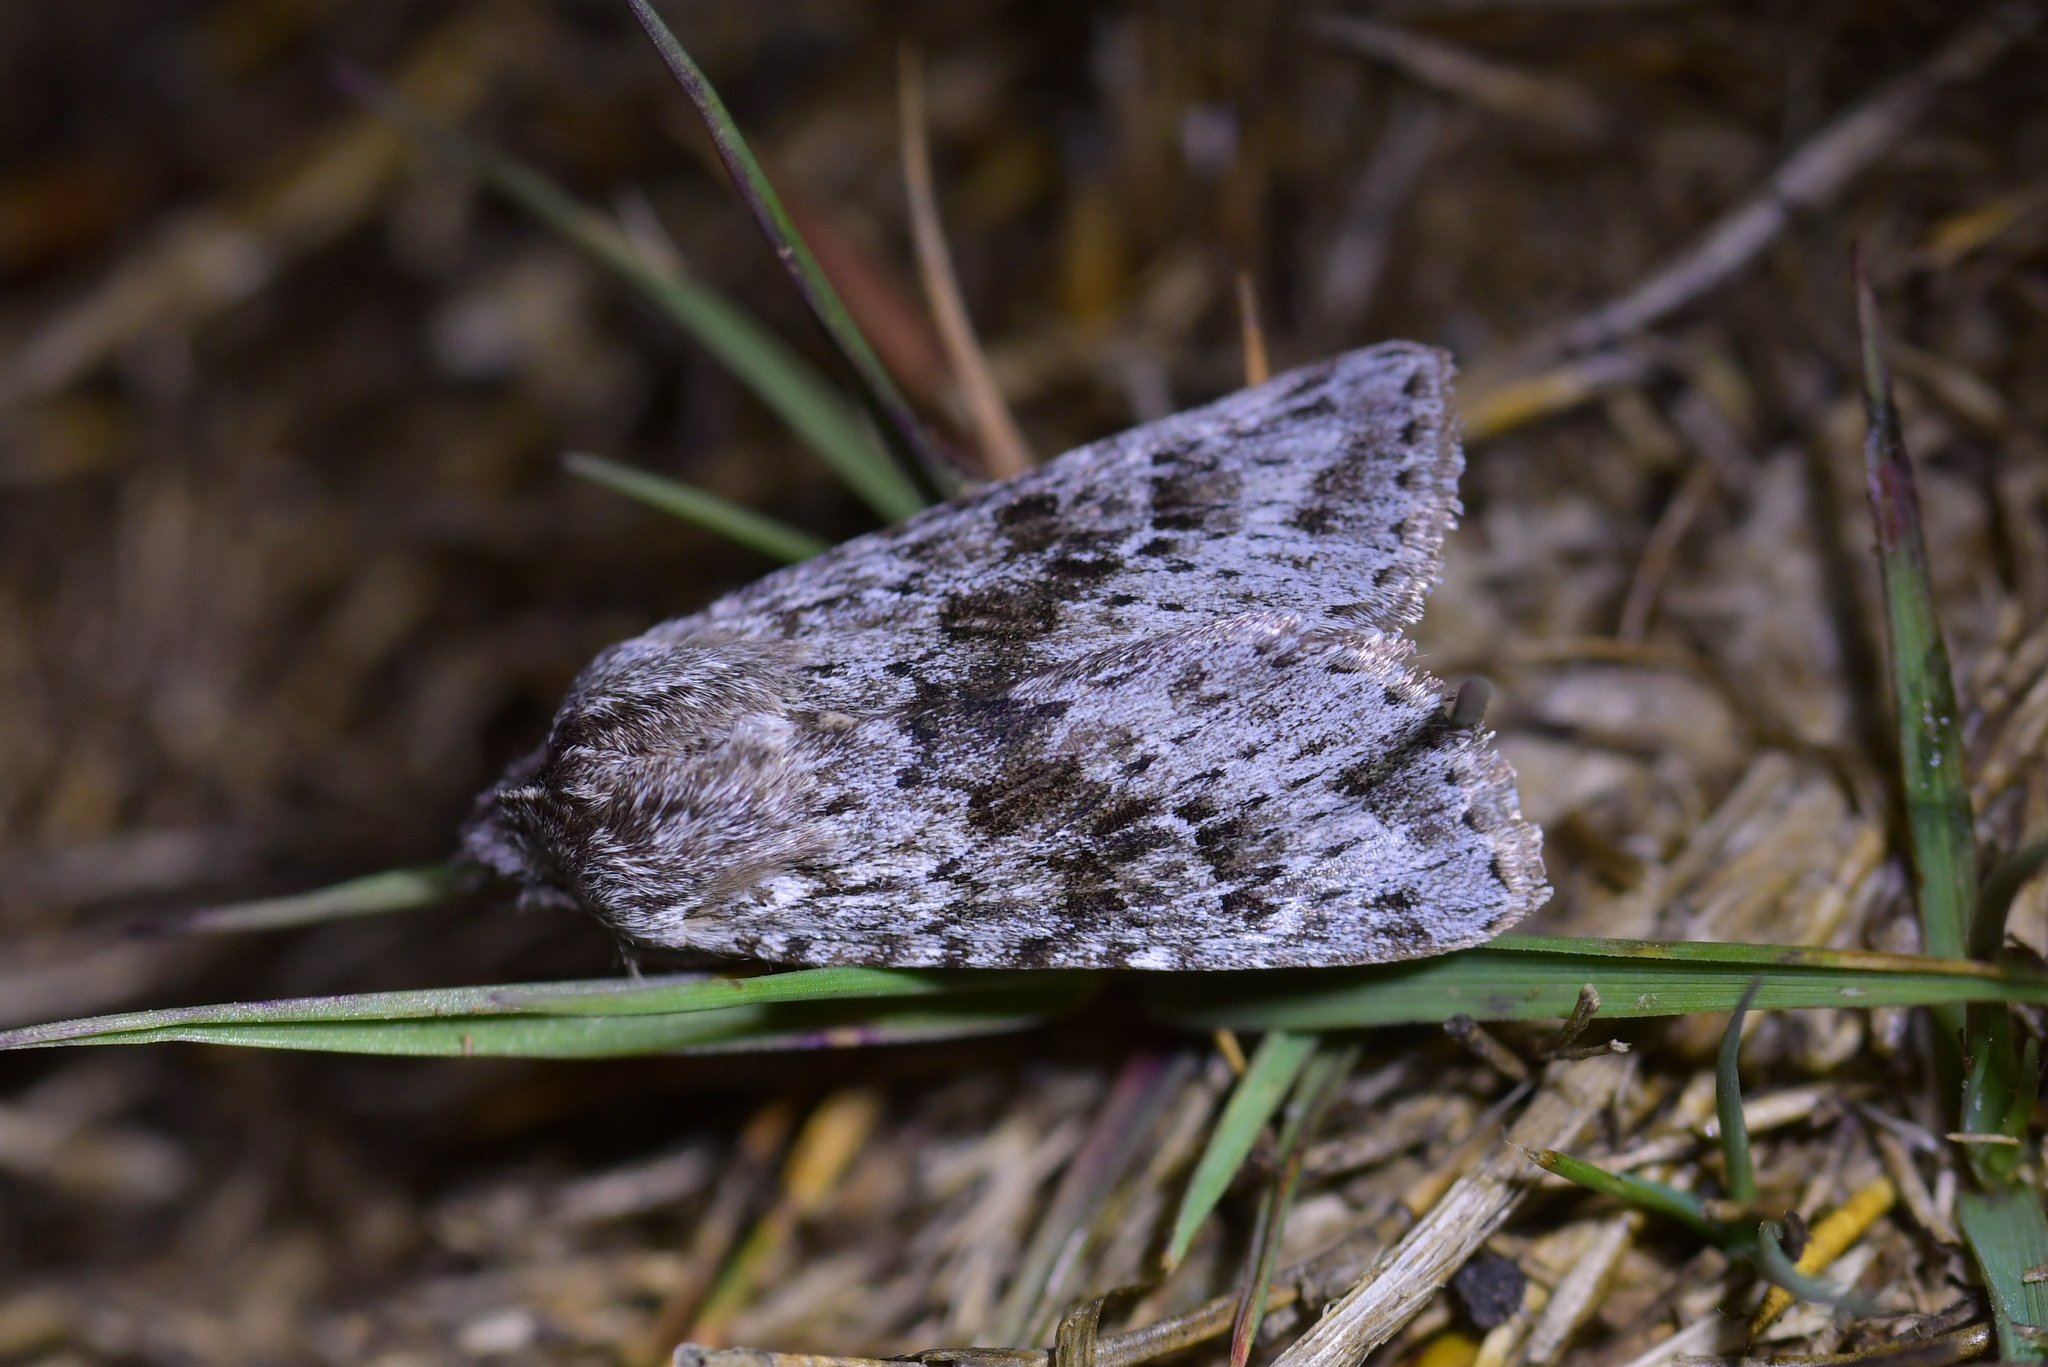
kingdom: Animalia
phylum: Arthropoda
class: Insecta
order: Lepidoptera
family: Noctuidae
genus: Physetica
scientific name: Physetica cucullina
